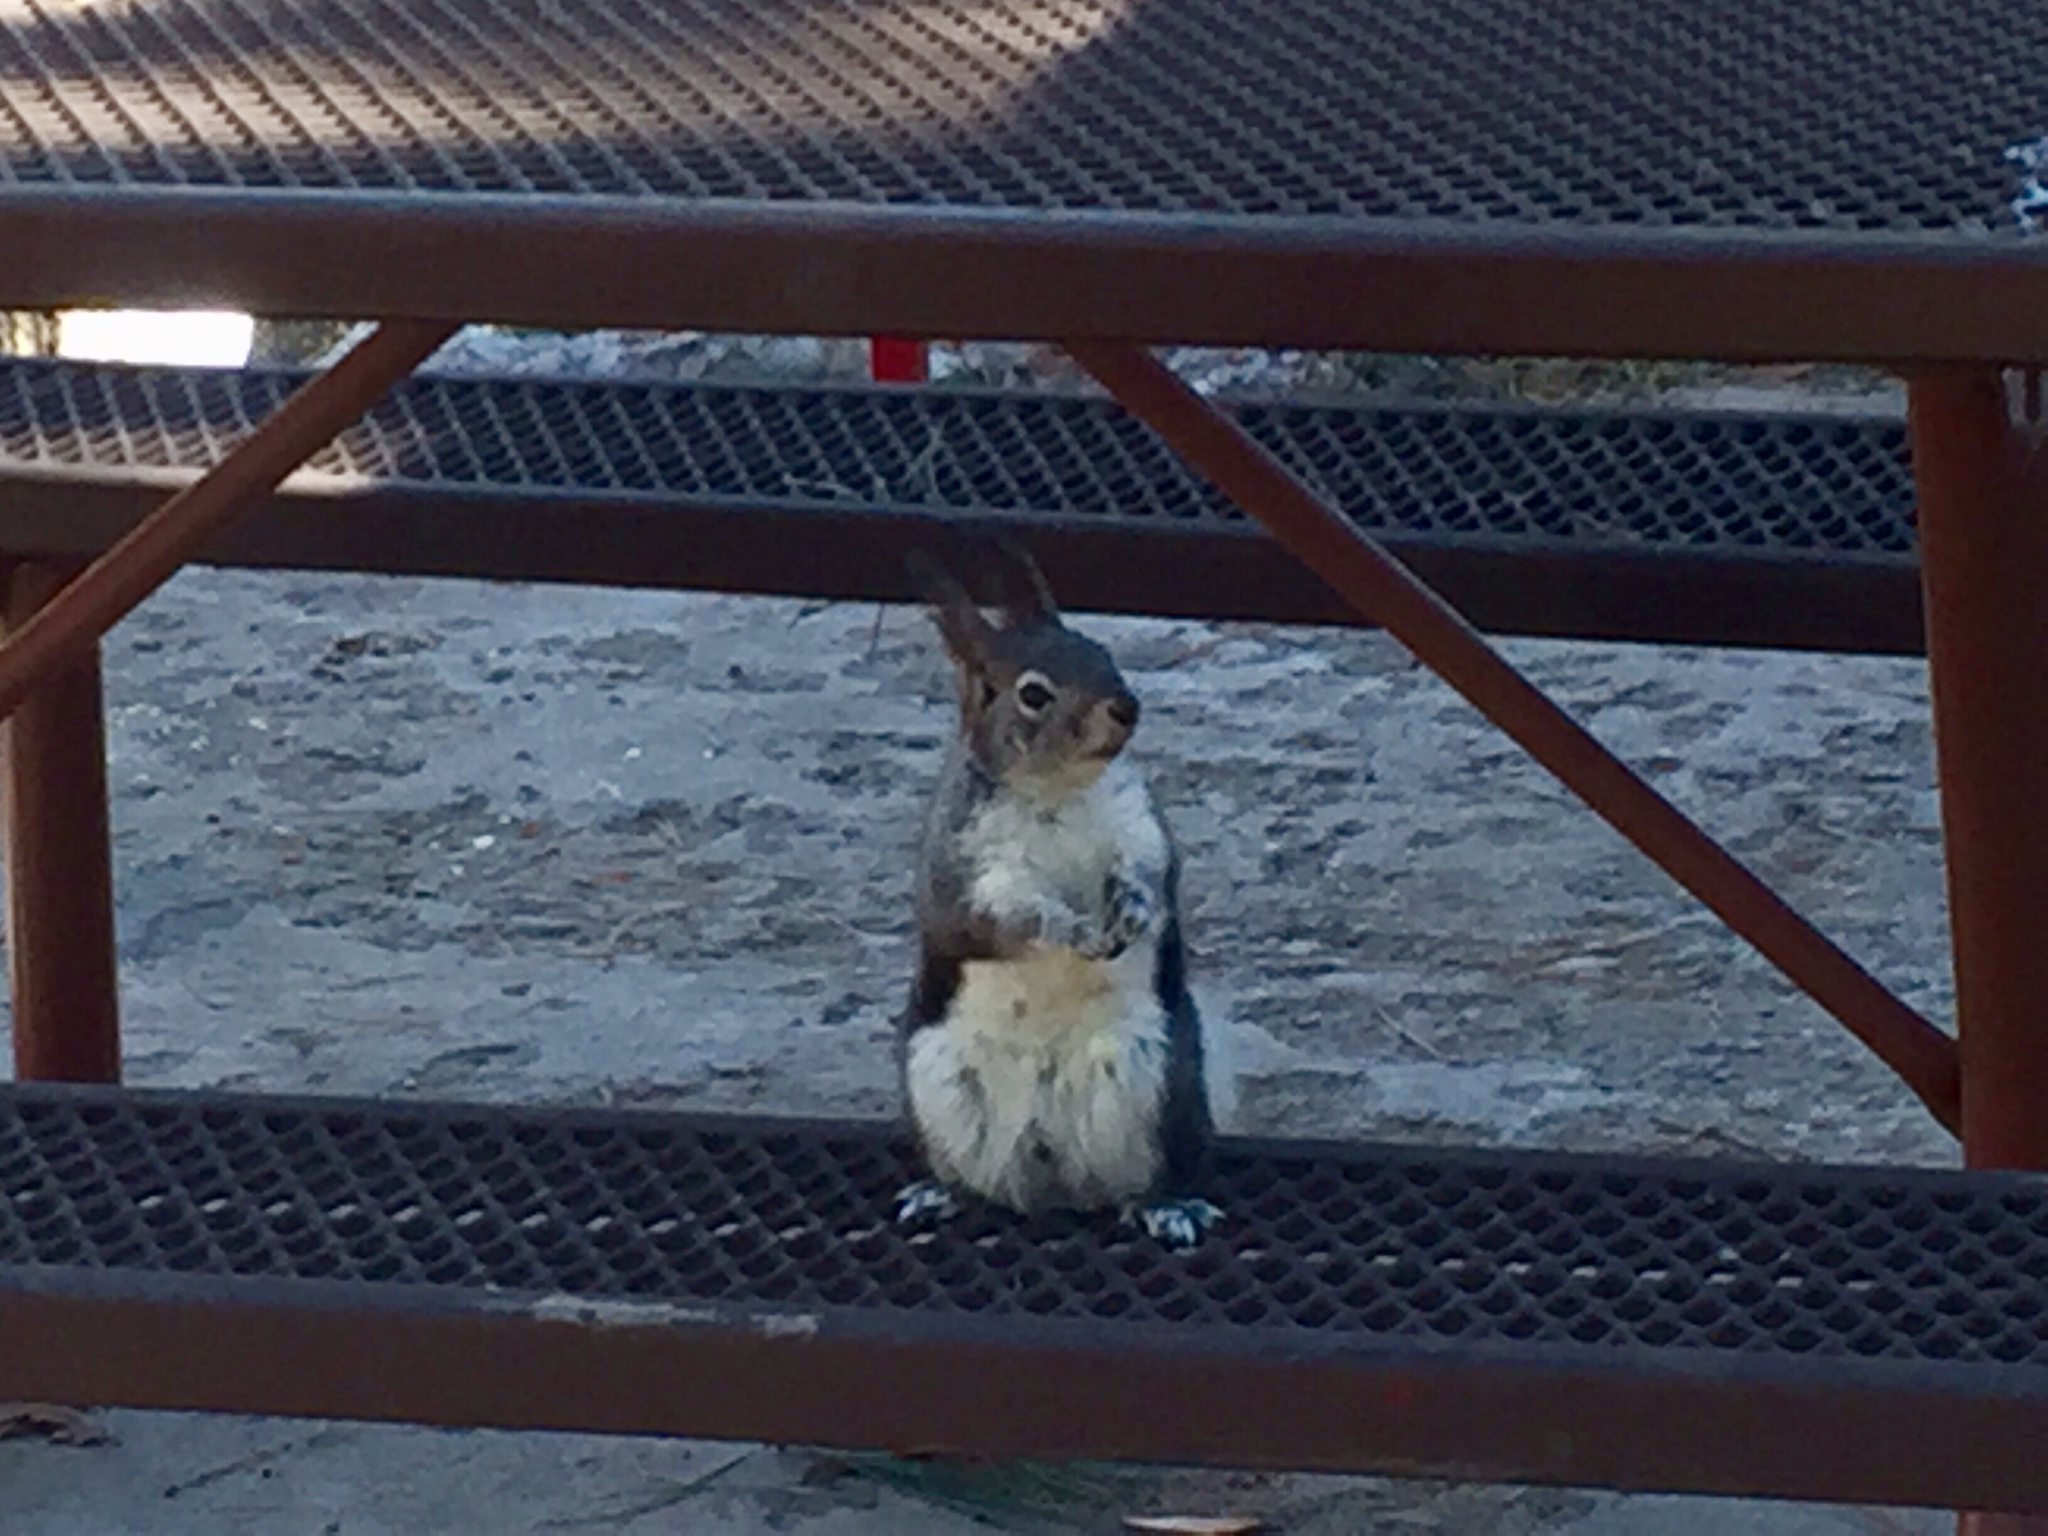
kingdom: Animalia
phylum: Chordata
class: Mammalia
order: Rodentia
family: Sciuridae
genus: Sciurus
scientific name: Sciurus aberti
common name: Abert's squirrel
